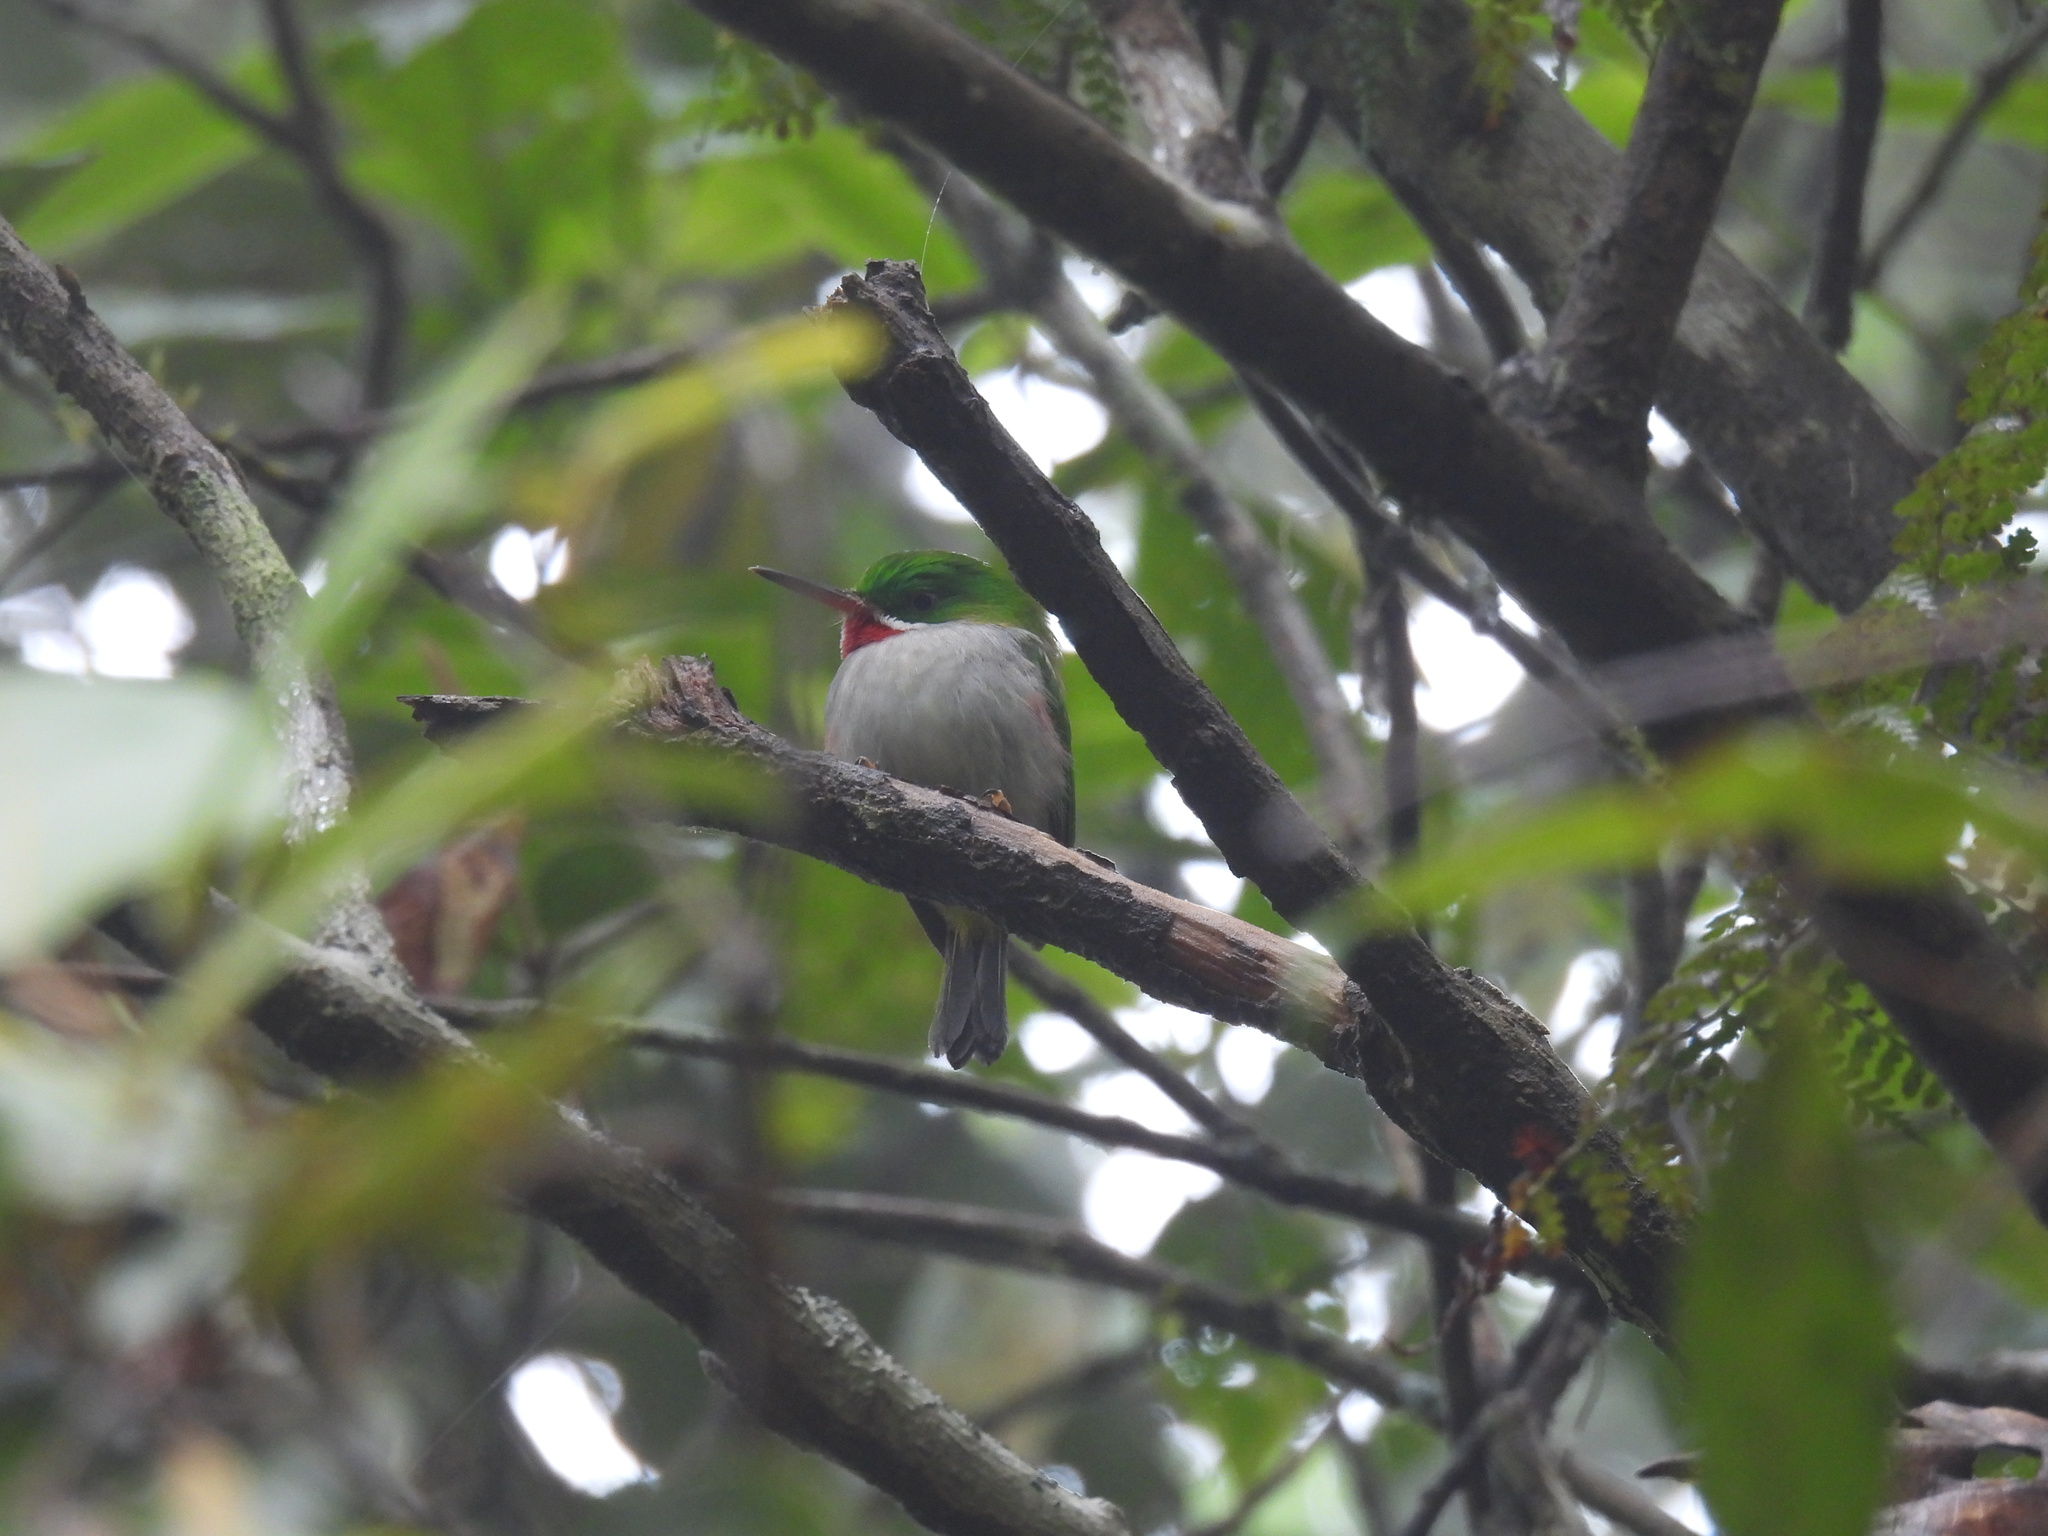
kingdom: Animalia
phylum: Chordata
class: Aves
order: Coraciiformes
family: Todidae
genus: Todus
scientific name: Todus angustirostris
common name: Narrow-billed tody
